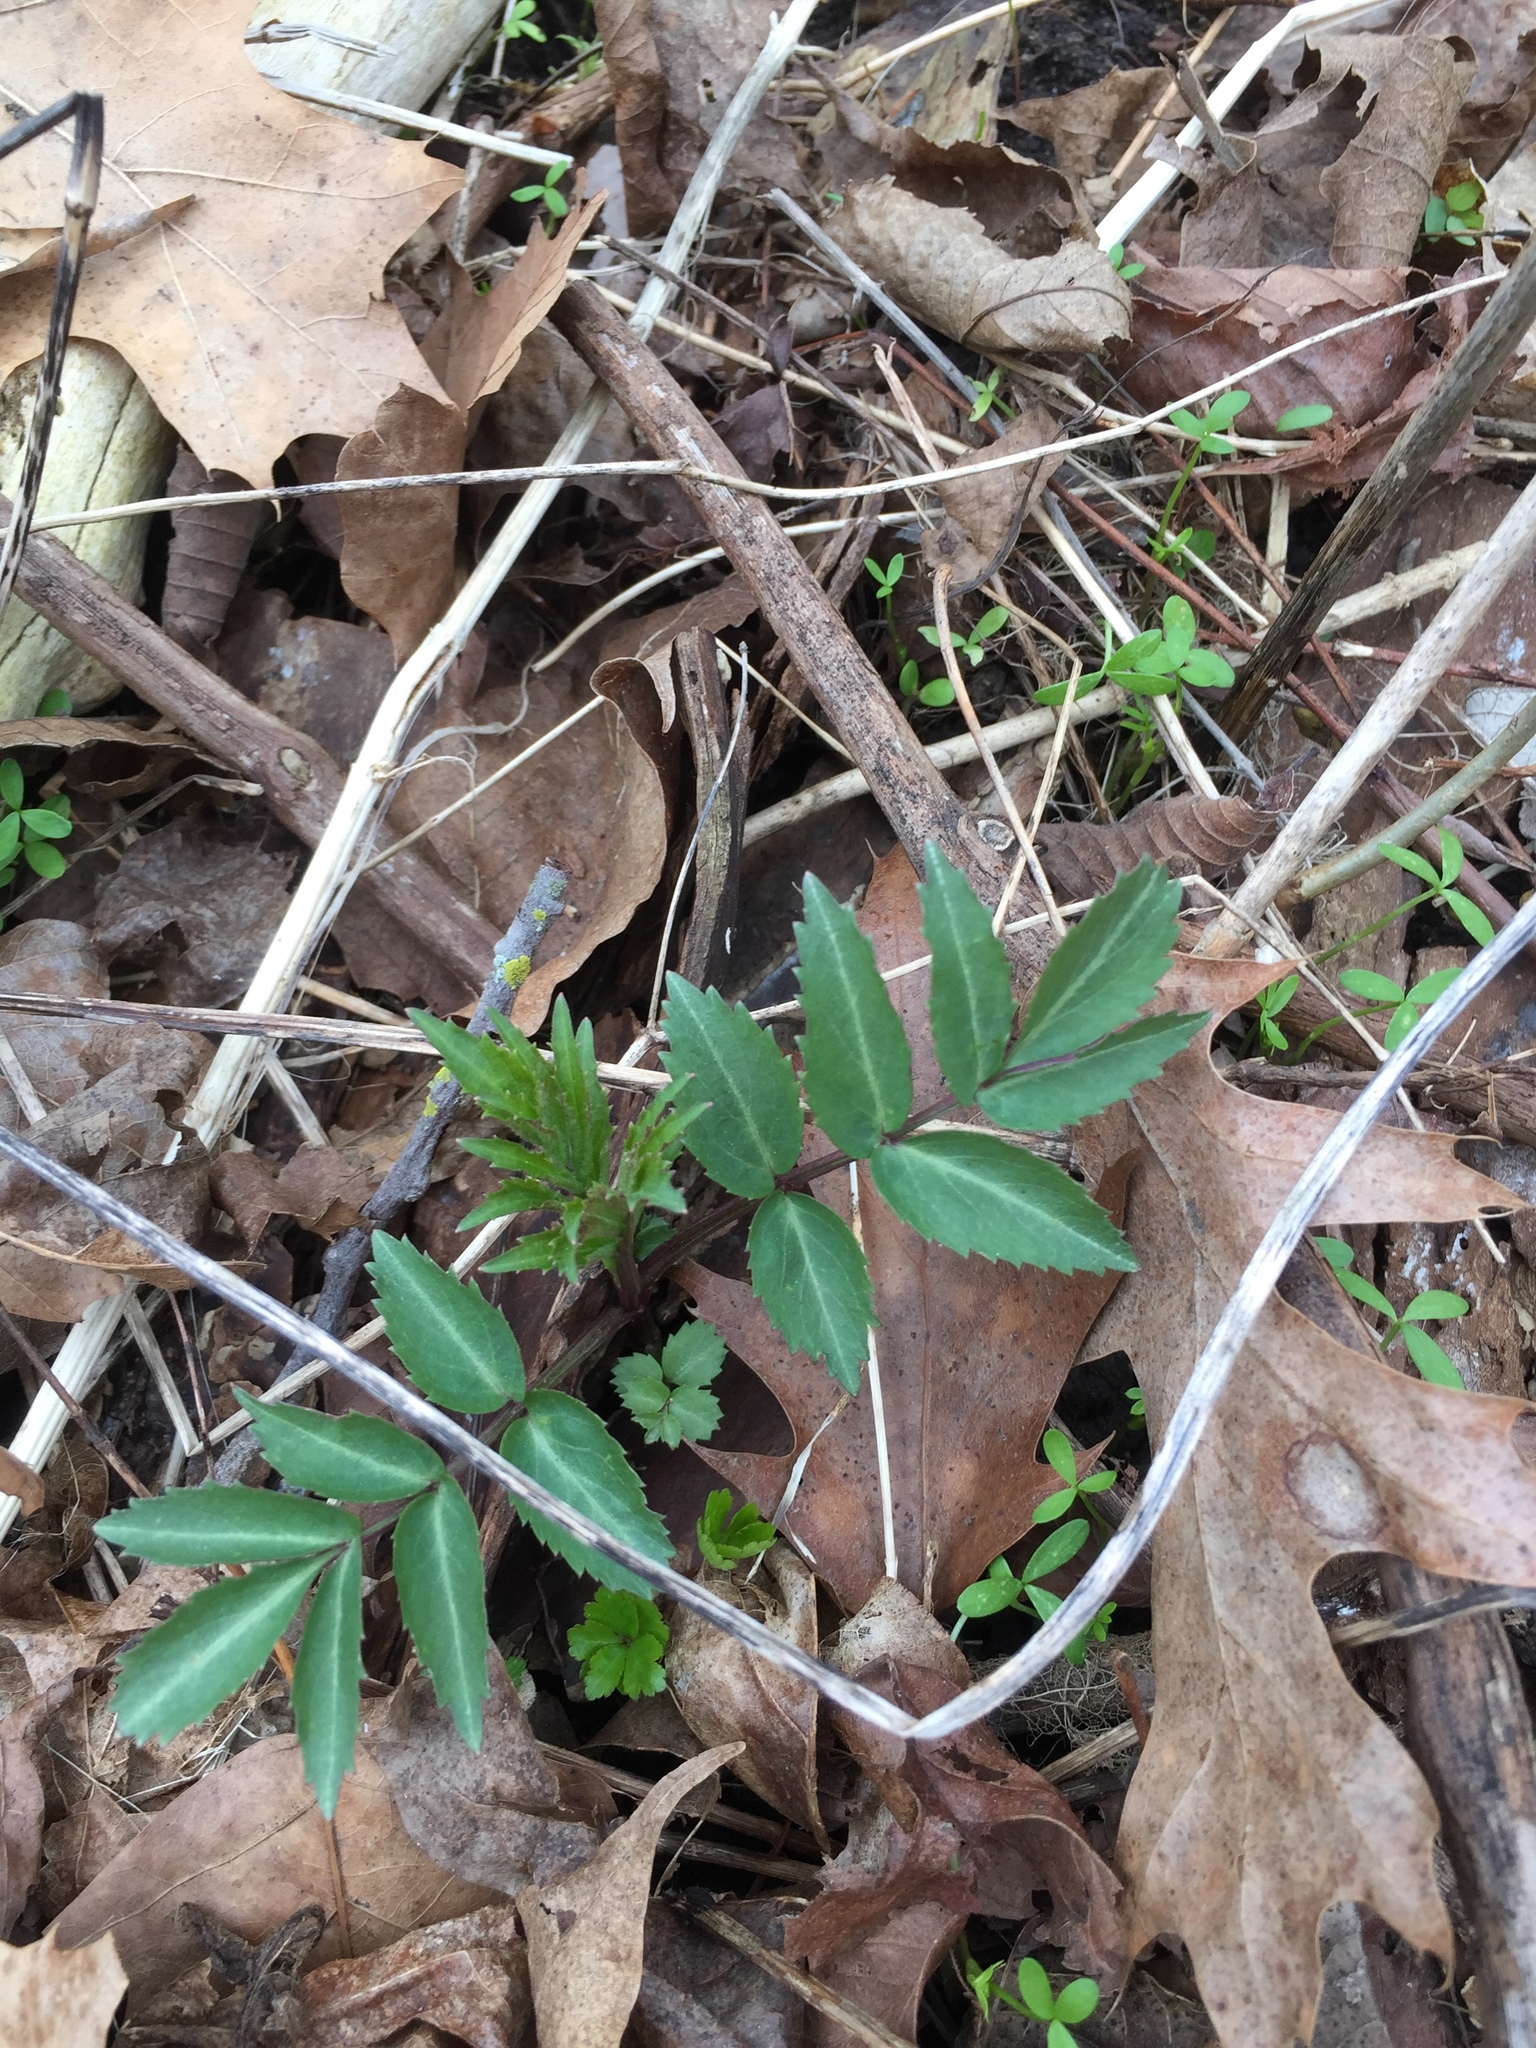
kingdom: Plantae
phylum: Tracheophyta
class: Magnoliopsida
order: Dipsacales
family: Viburnaceae
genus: Sambucus
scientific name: Sambucus canadensis
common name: American elder
